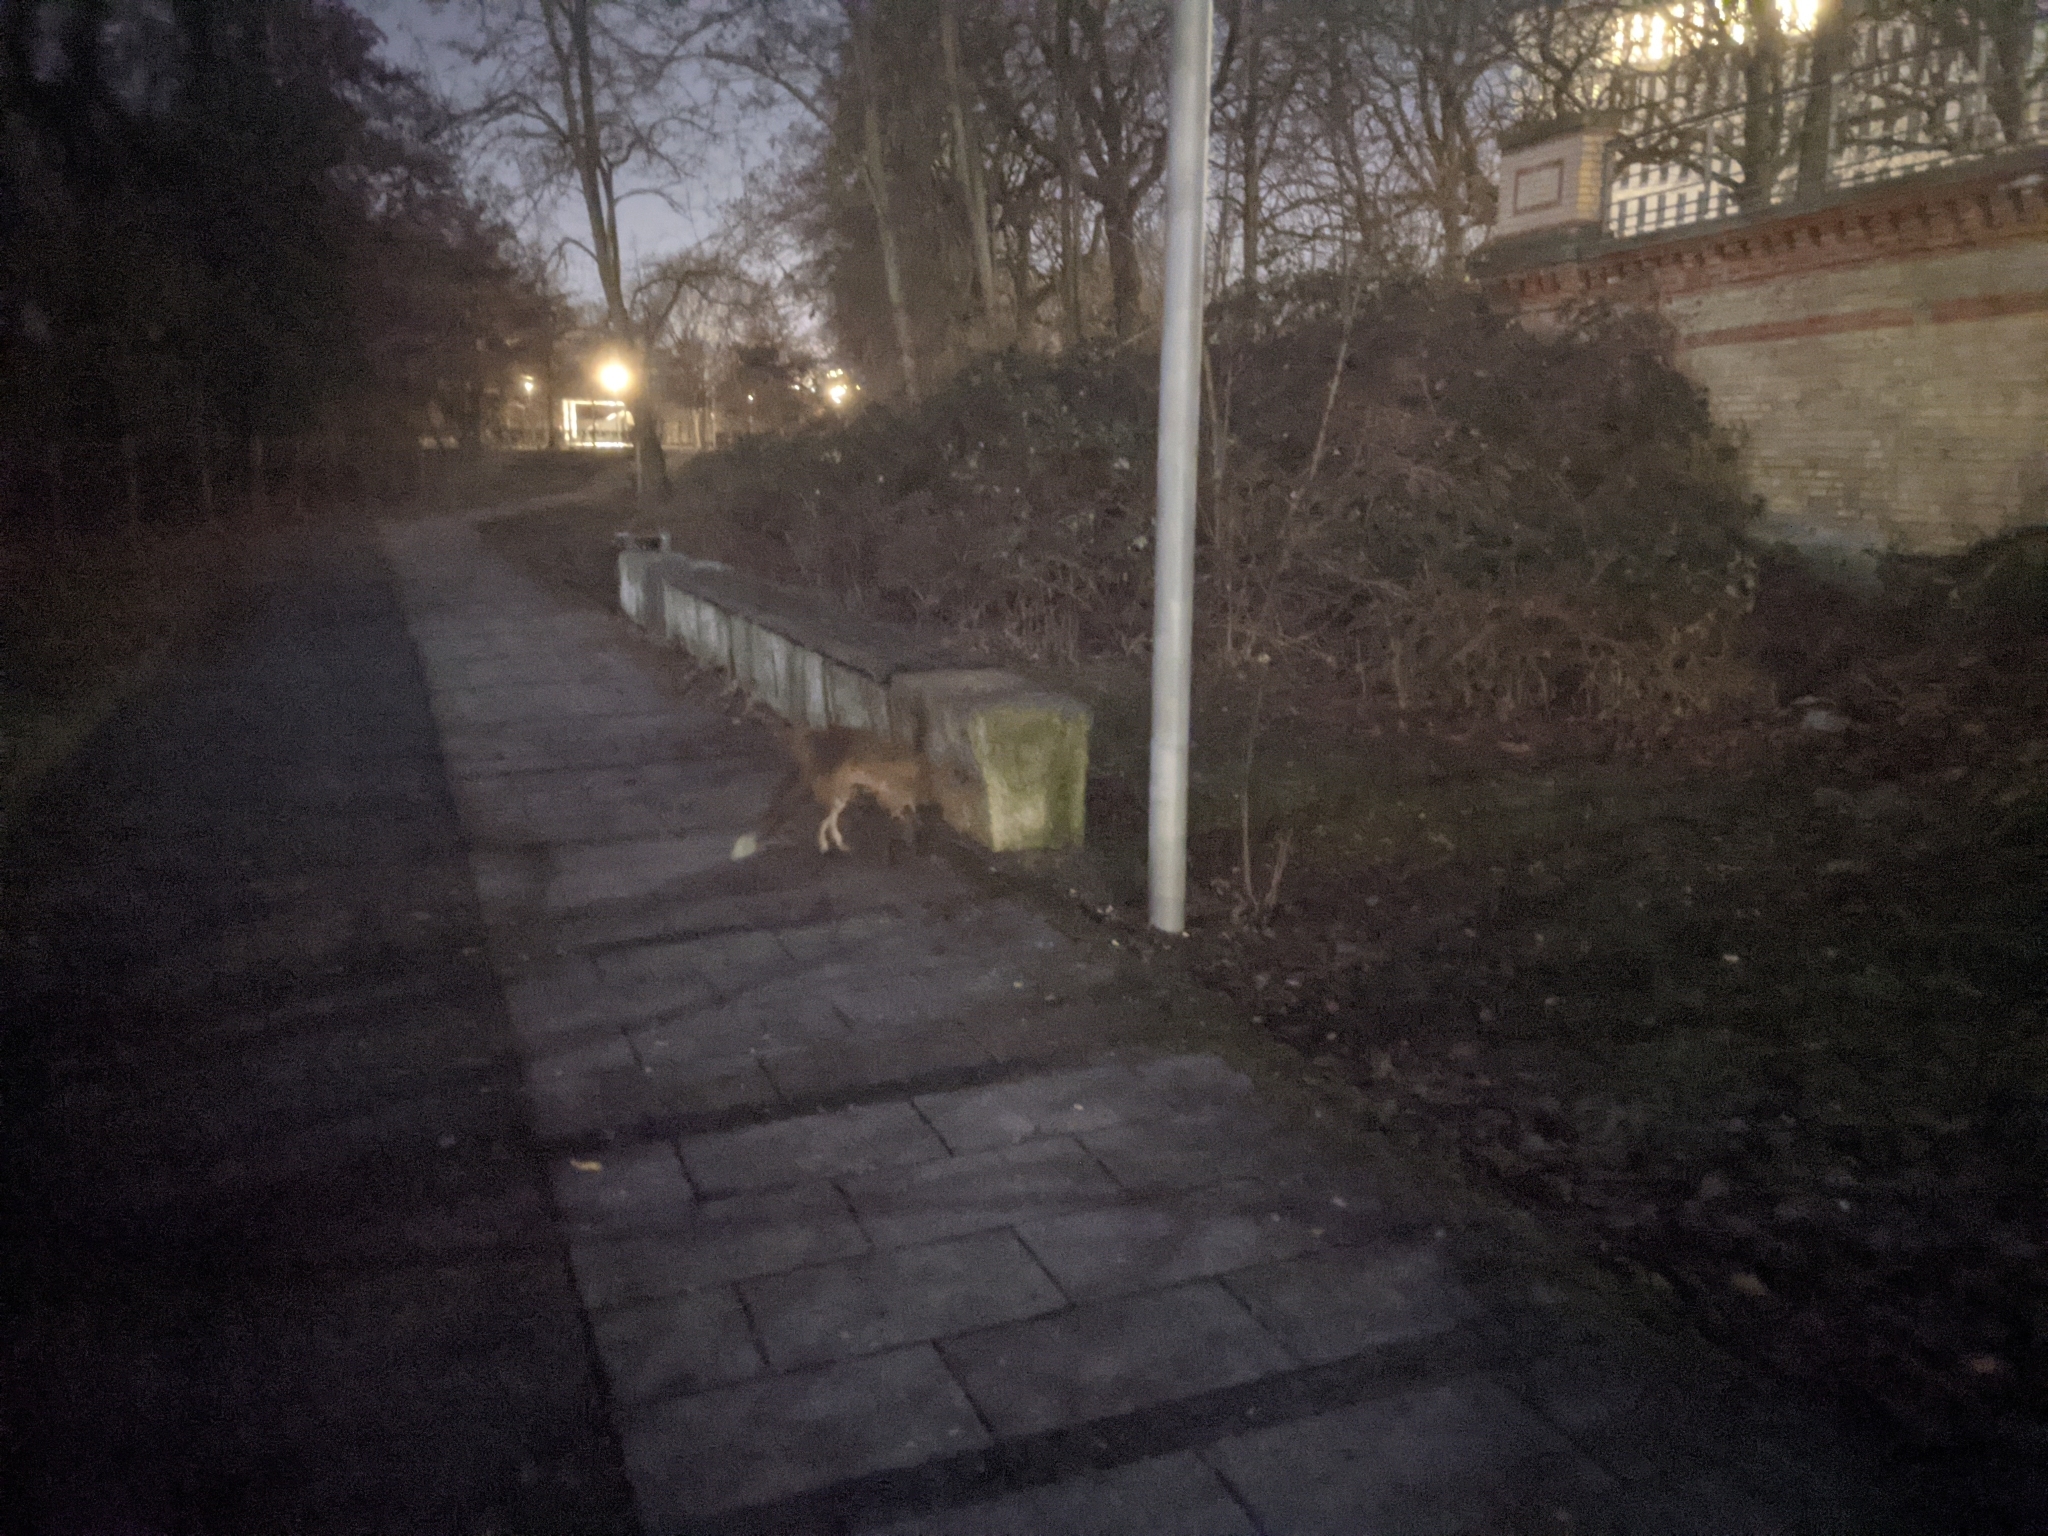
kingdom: Animalia
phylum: Chordata
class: Mammalia
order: Carnivora
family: Canidae
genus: Vulpes
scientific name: Vulpes vulpes
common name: Red fox
